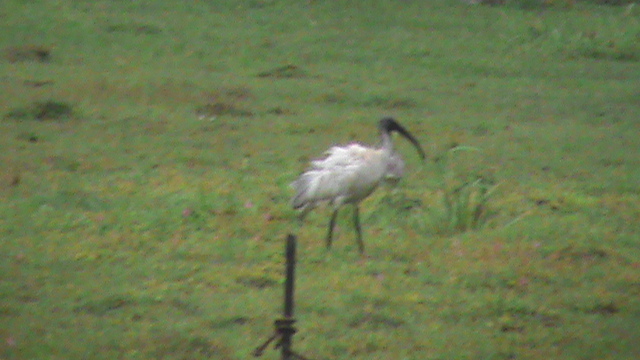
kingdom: Animalia
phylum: Chordata
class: Aves
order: Pelecaniformes
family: Threskiornithidae
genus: Threskiornis
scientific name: Threskiornis melanocephalus
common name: Black-headed ibis
